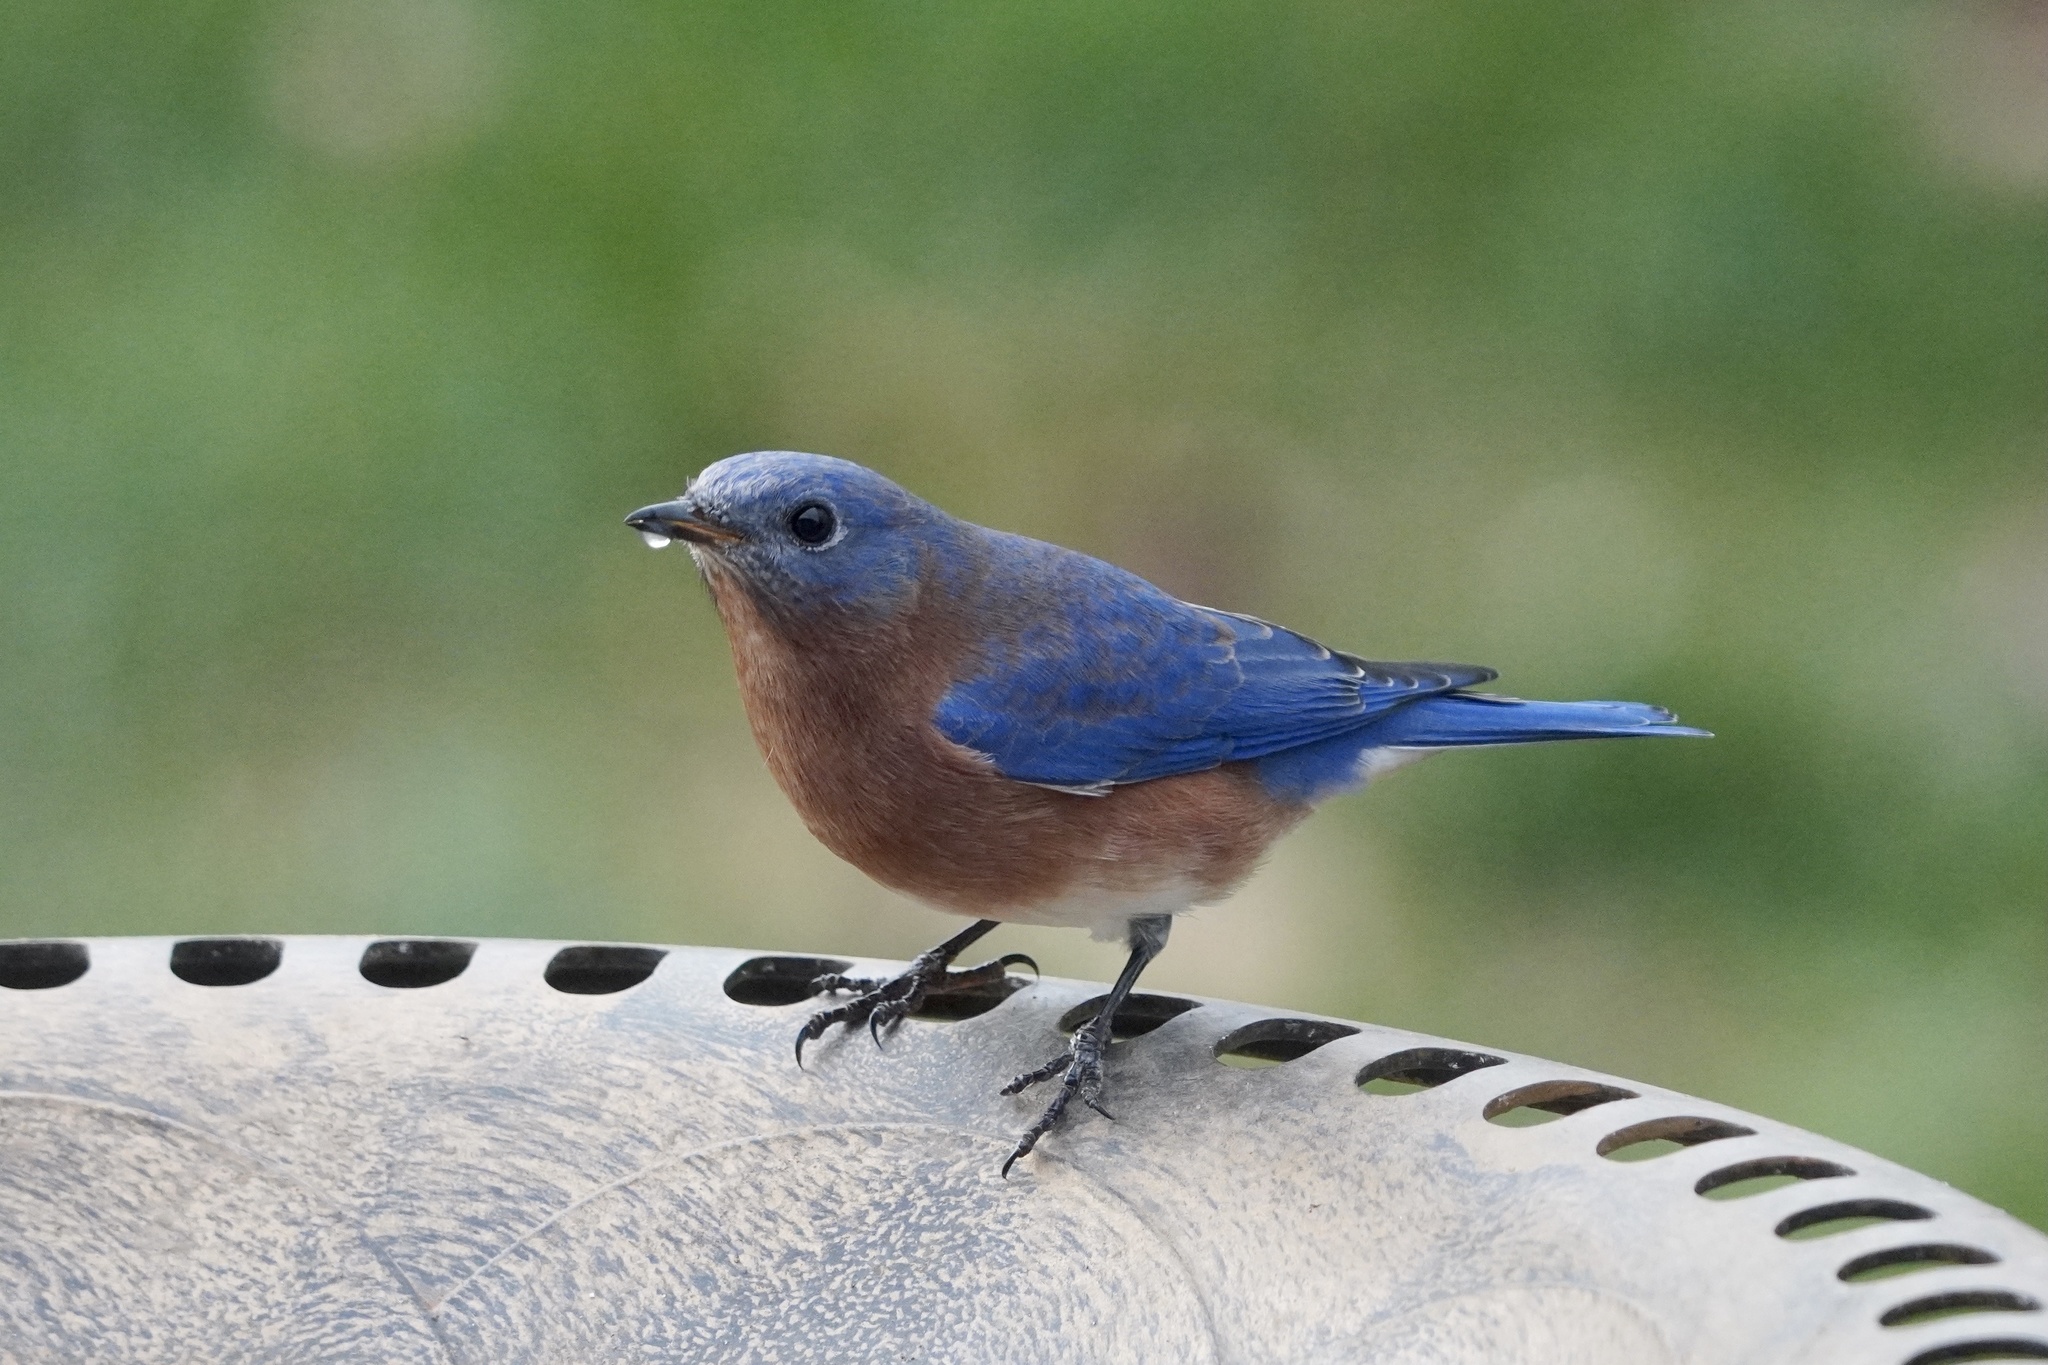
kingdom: Animalia
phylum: Chordata
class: Aves
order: Passeriformes
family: Turdidae
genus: Sialia
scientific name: Sialia sialis
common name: Eastern bluebird
